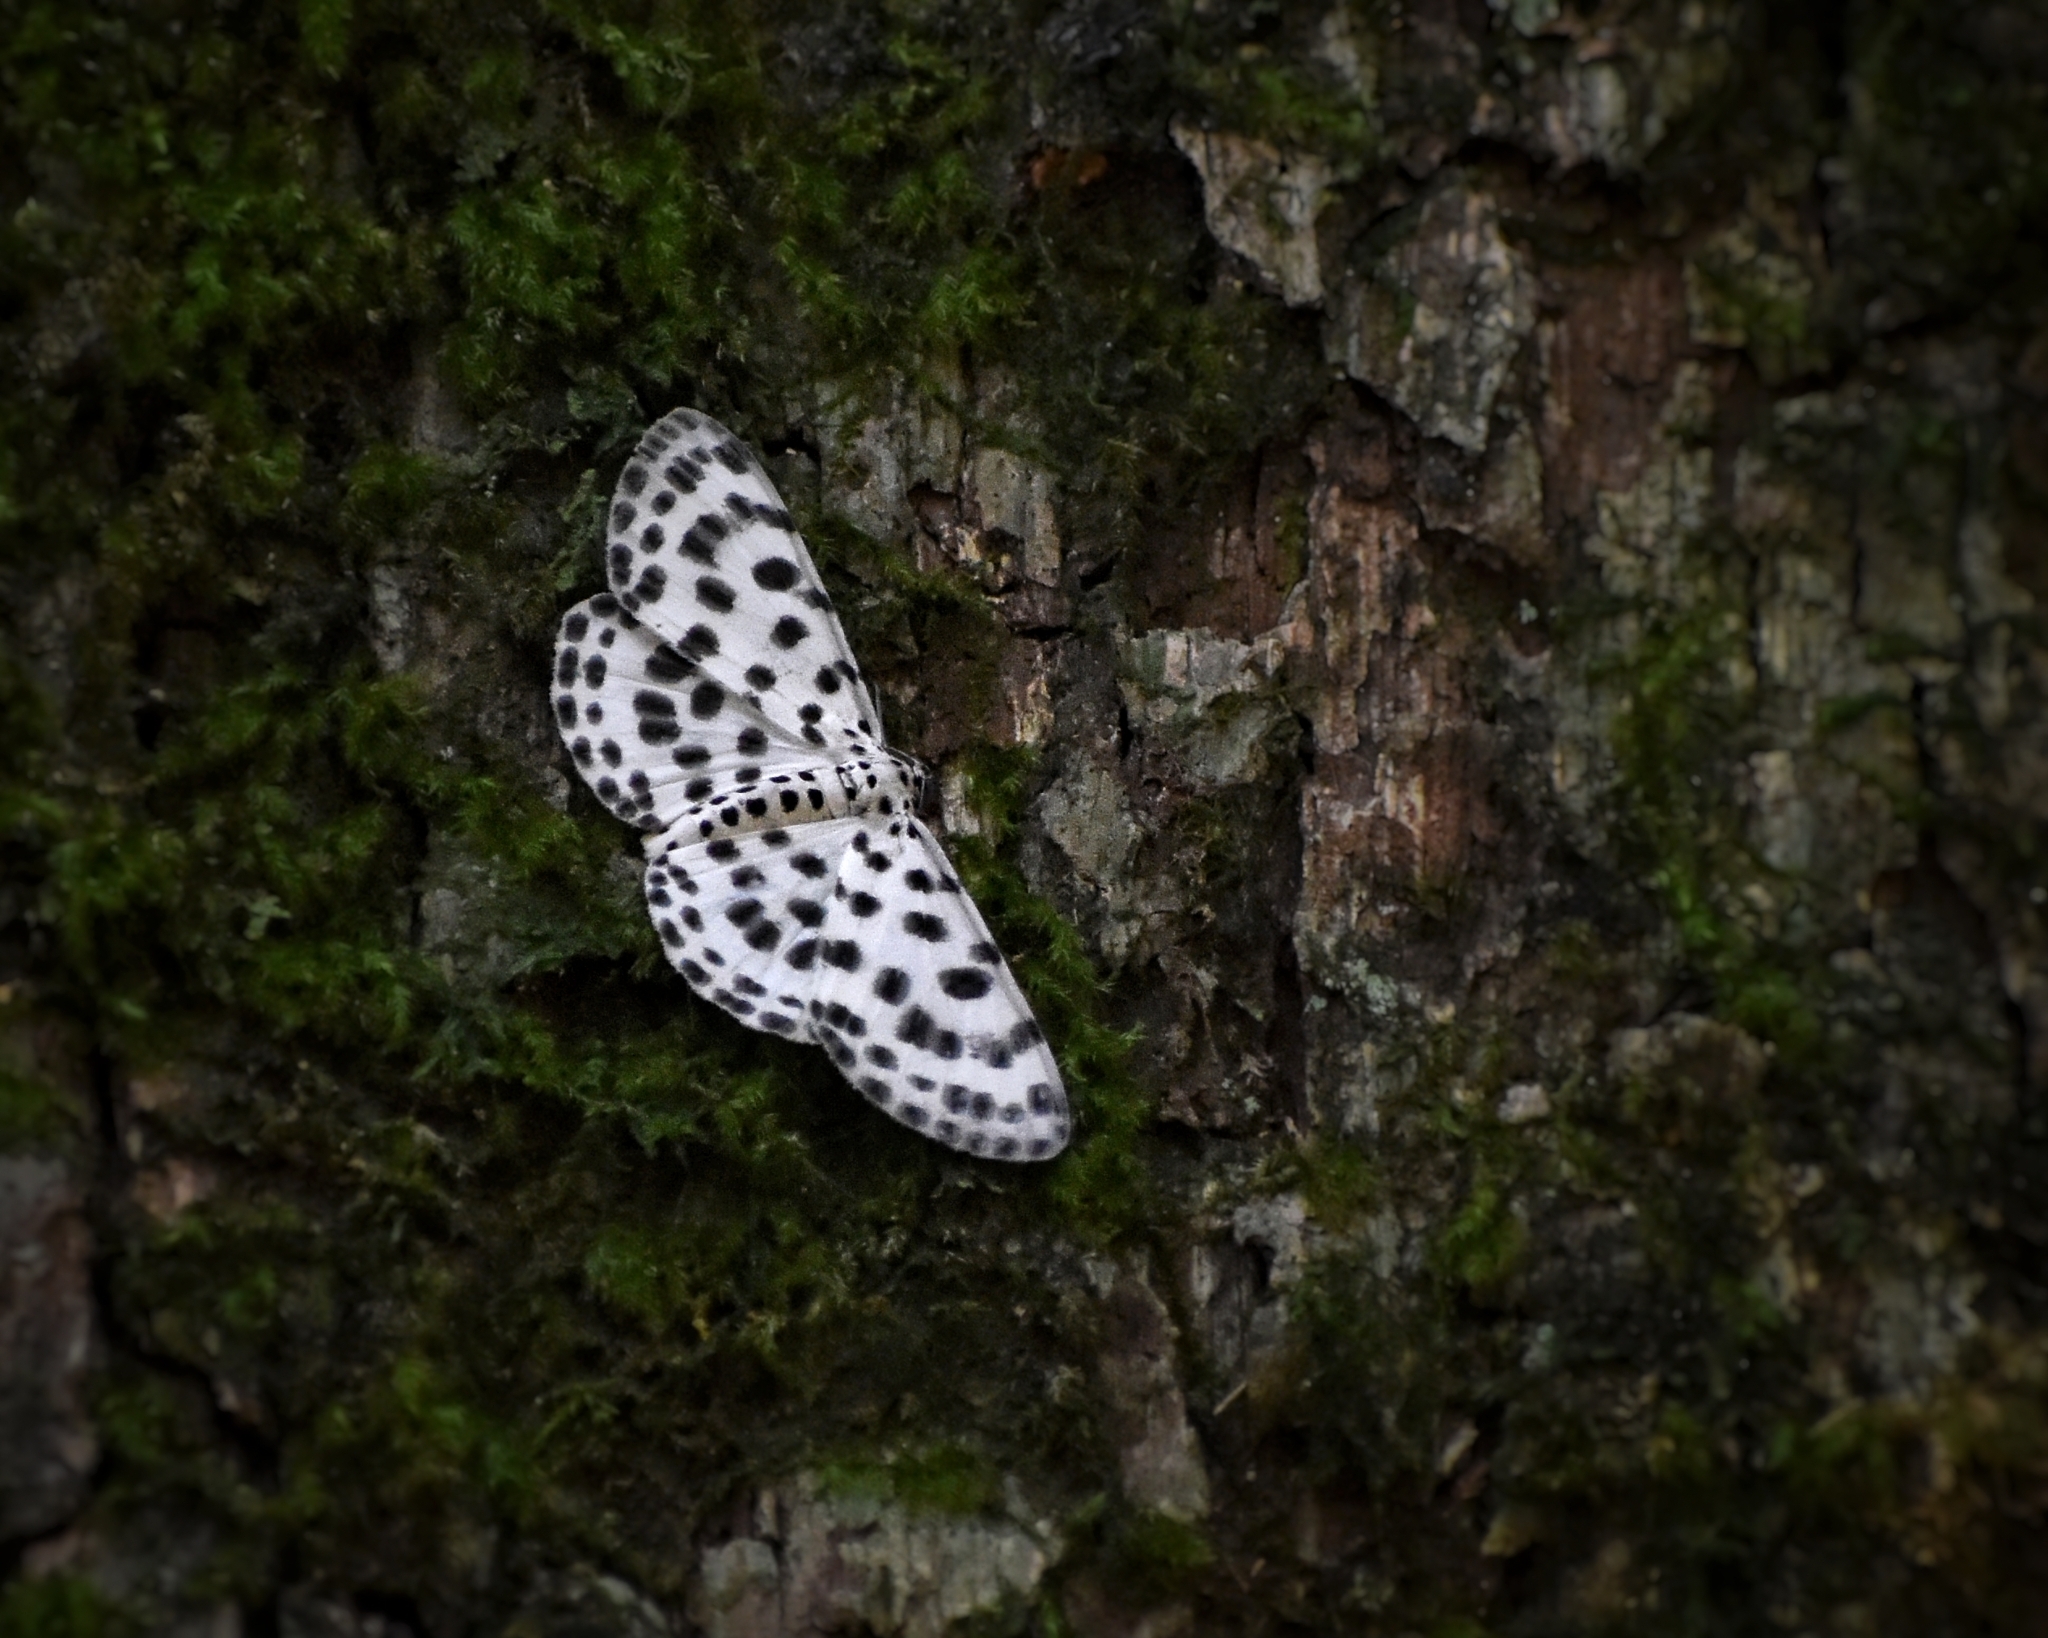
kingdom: Animalia
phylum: Arthropoda
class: Insecta
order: Lepidoptera
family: Geometridae
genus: Antipercnia
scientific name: Antipercnia albinigrata
